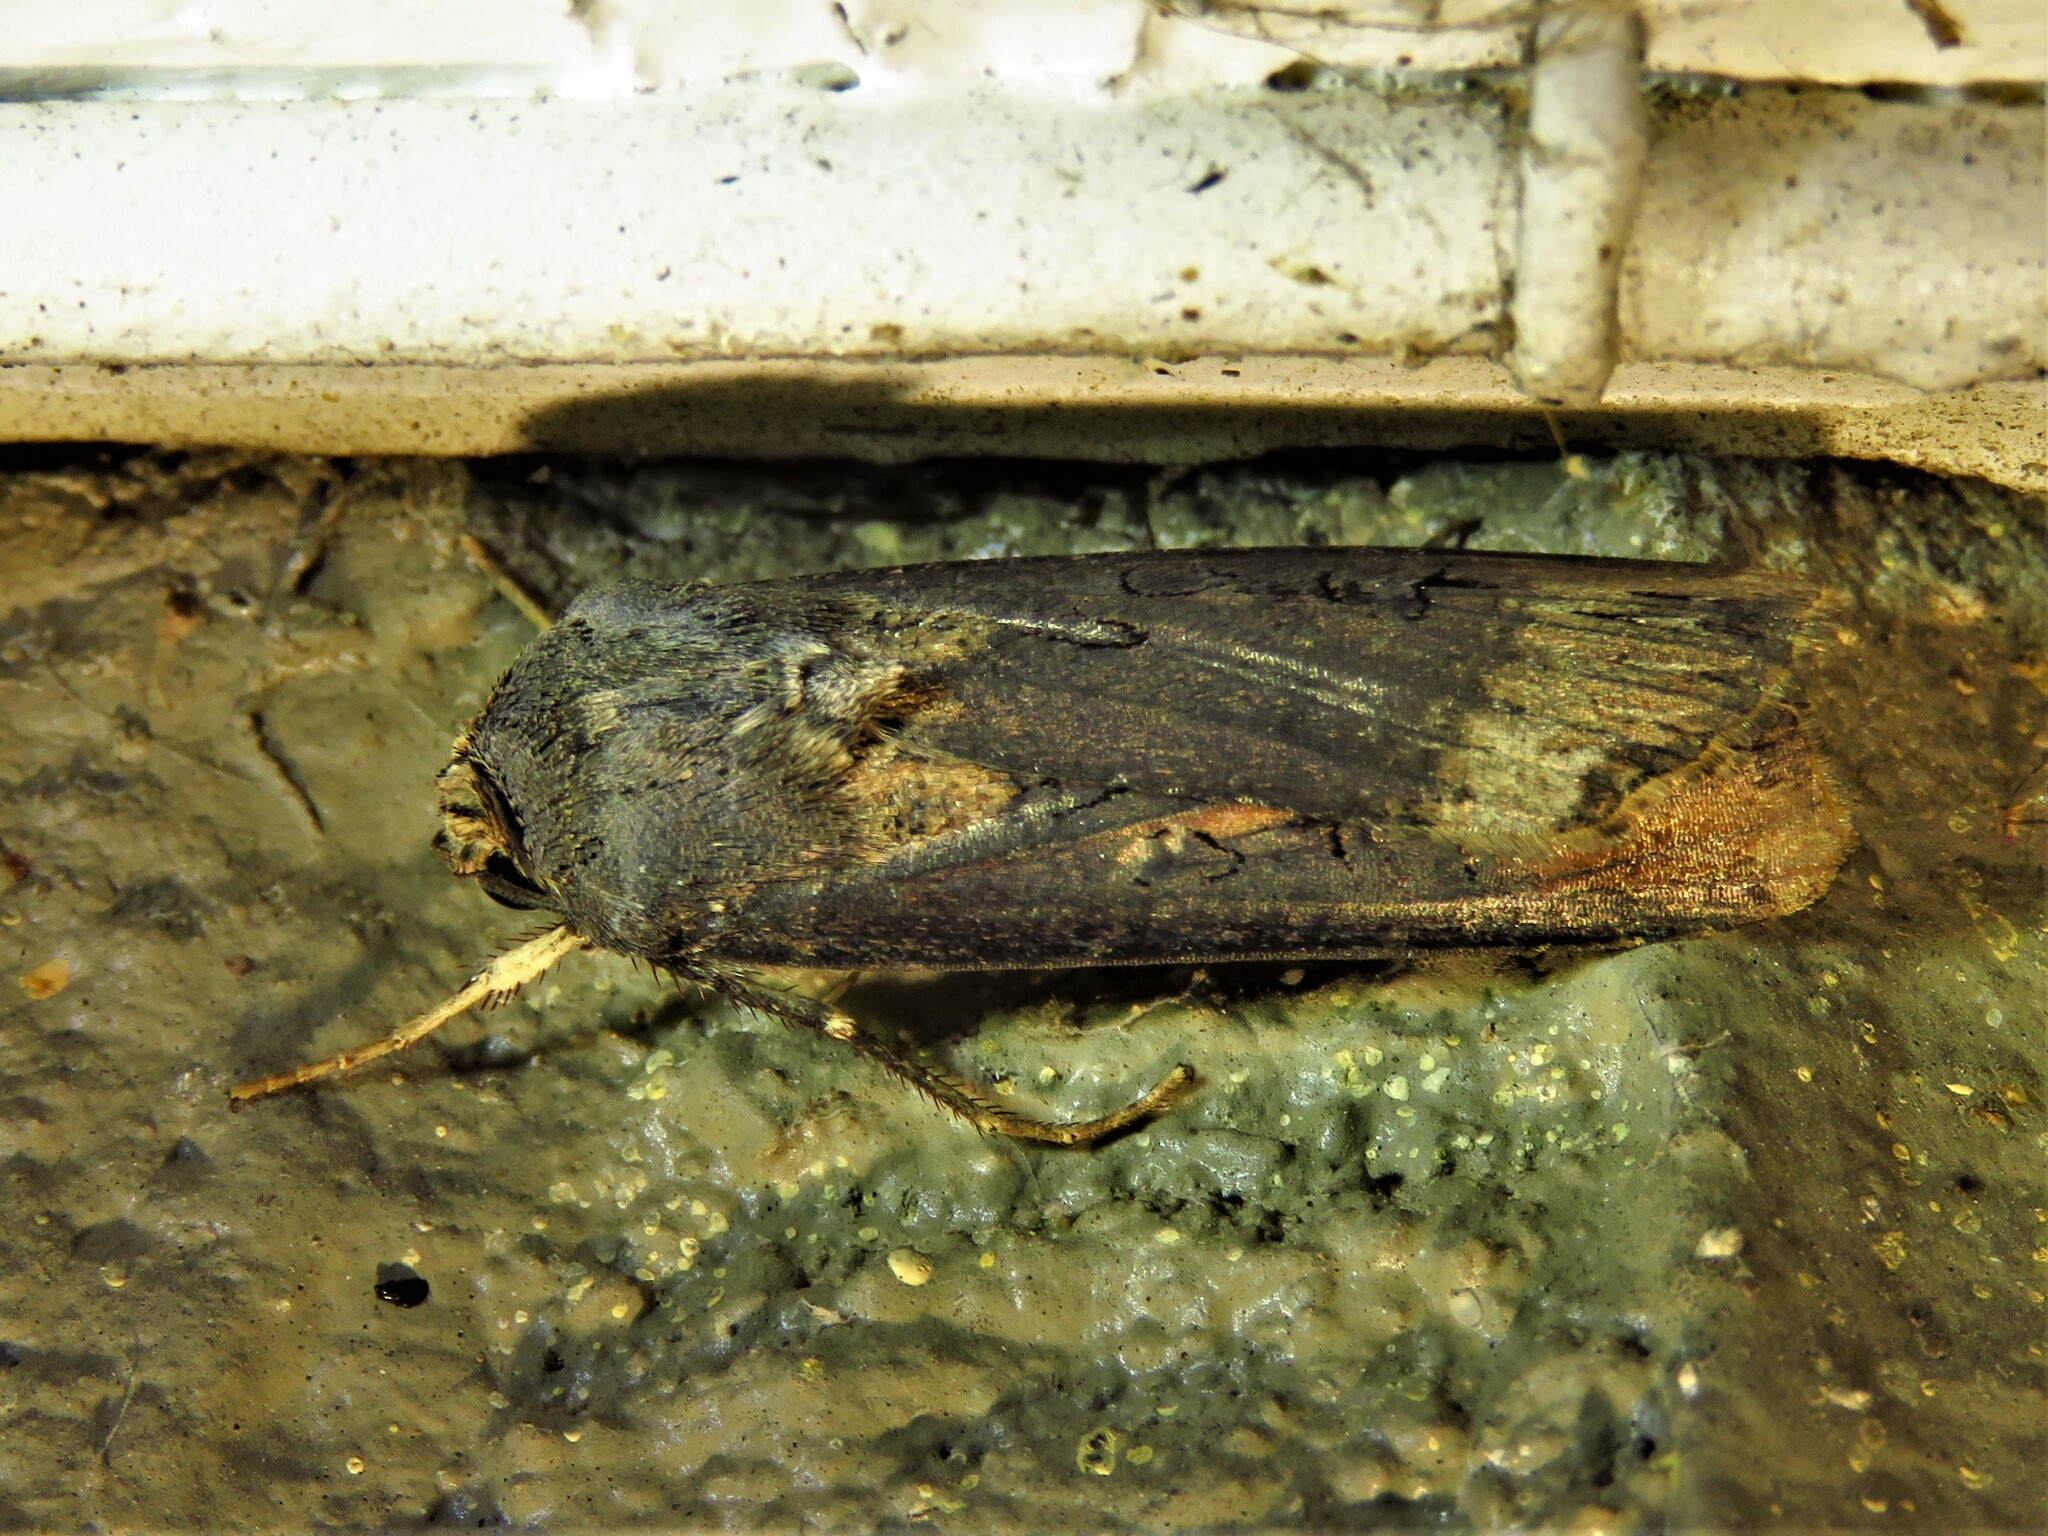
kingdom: Animalia
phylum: Arthropoda
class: Insecta
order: Lepidoptera
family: Noctuidae
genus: Agrotis
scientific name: Agrotis ipsilon
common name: Dark sword-grass
